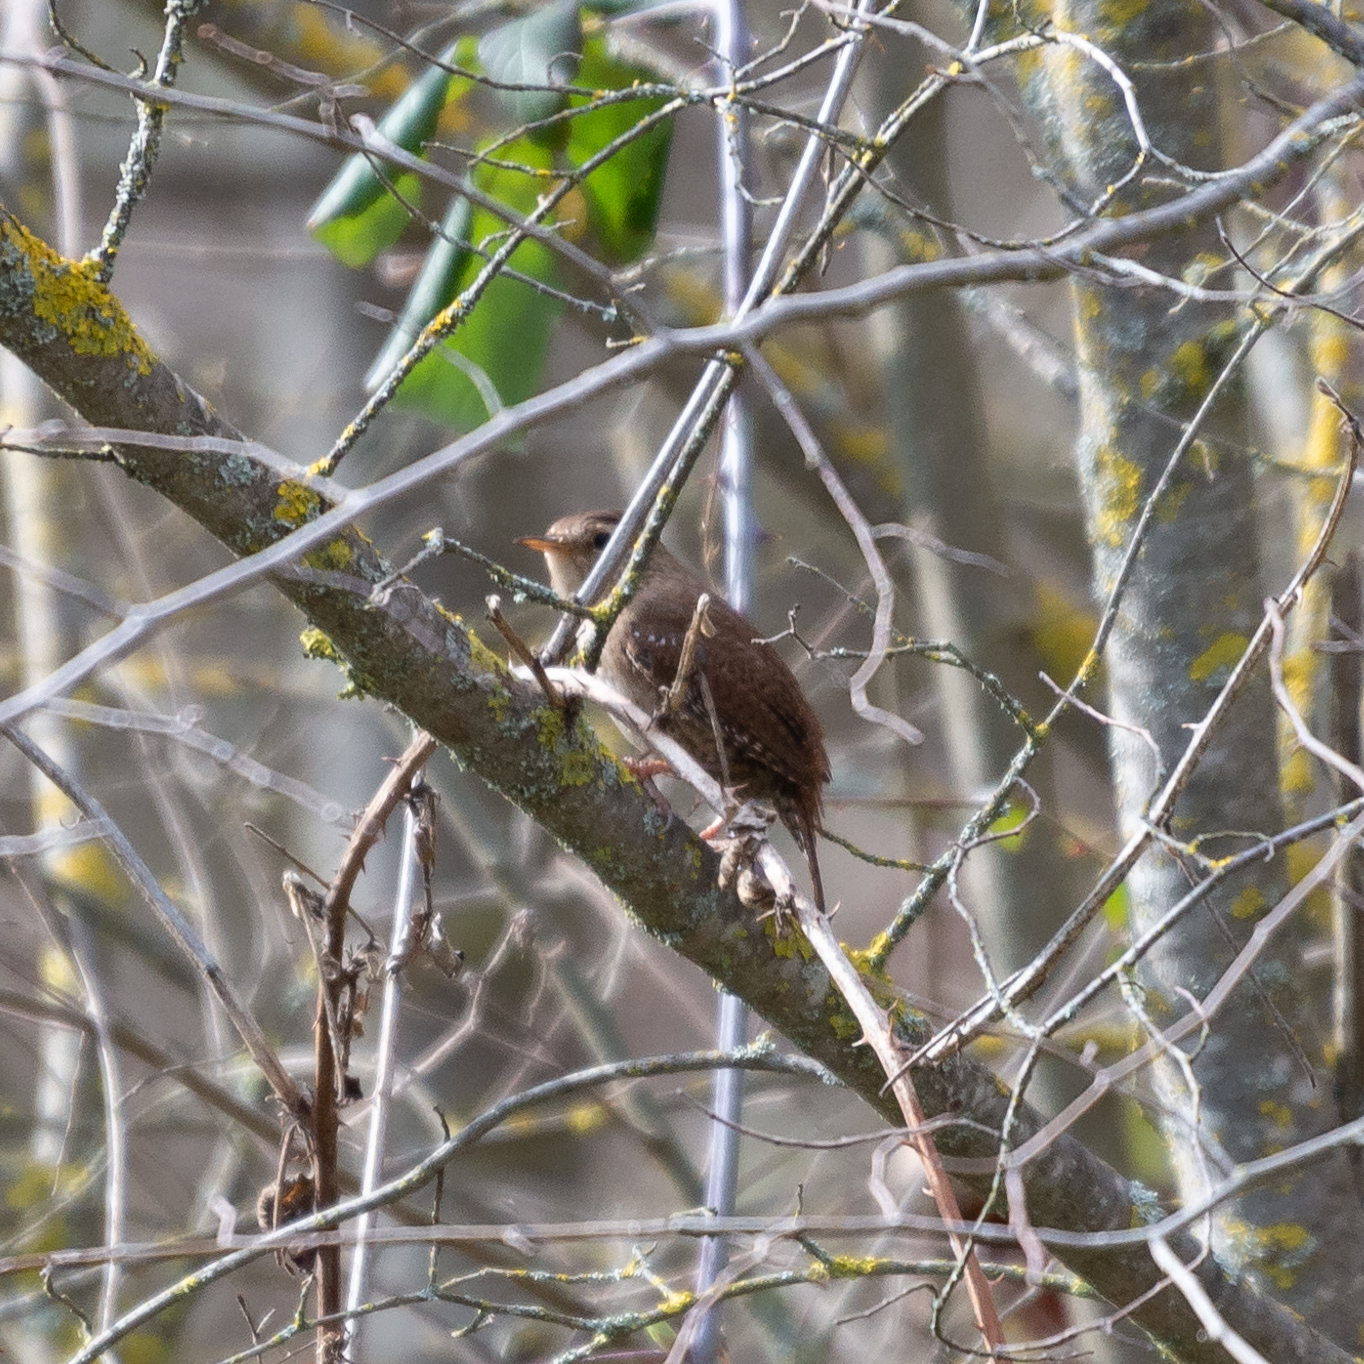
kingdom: Animalia
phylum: Chordata
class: Aves
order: Passeriformes
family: Troglodytidae
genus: Troglodytes
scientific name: Troglodytes troglodytes
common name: Eurasian wren
